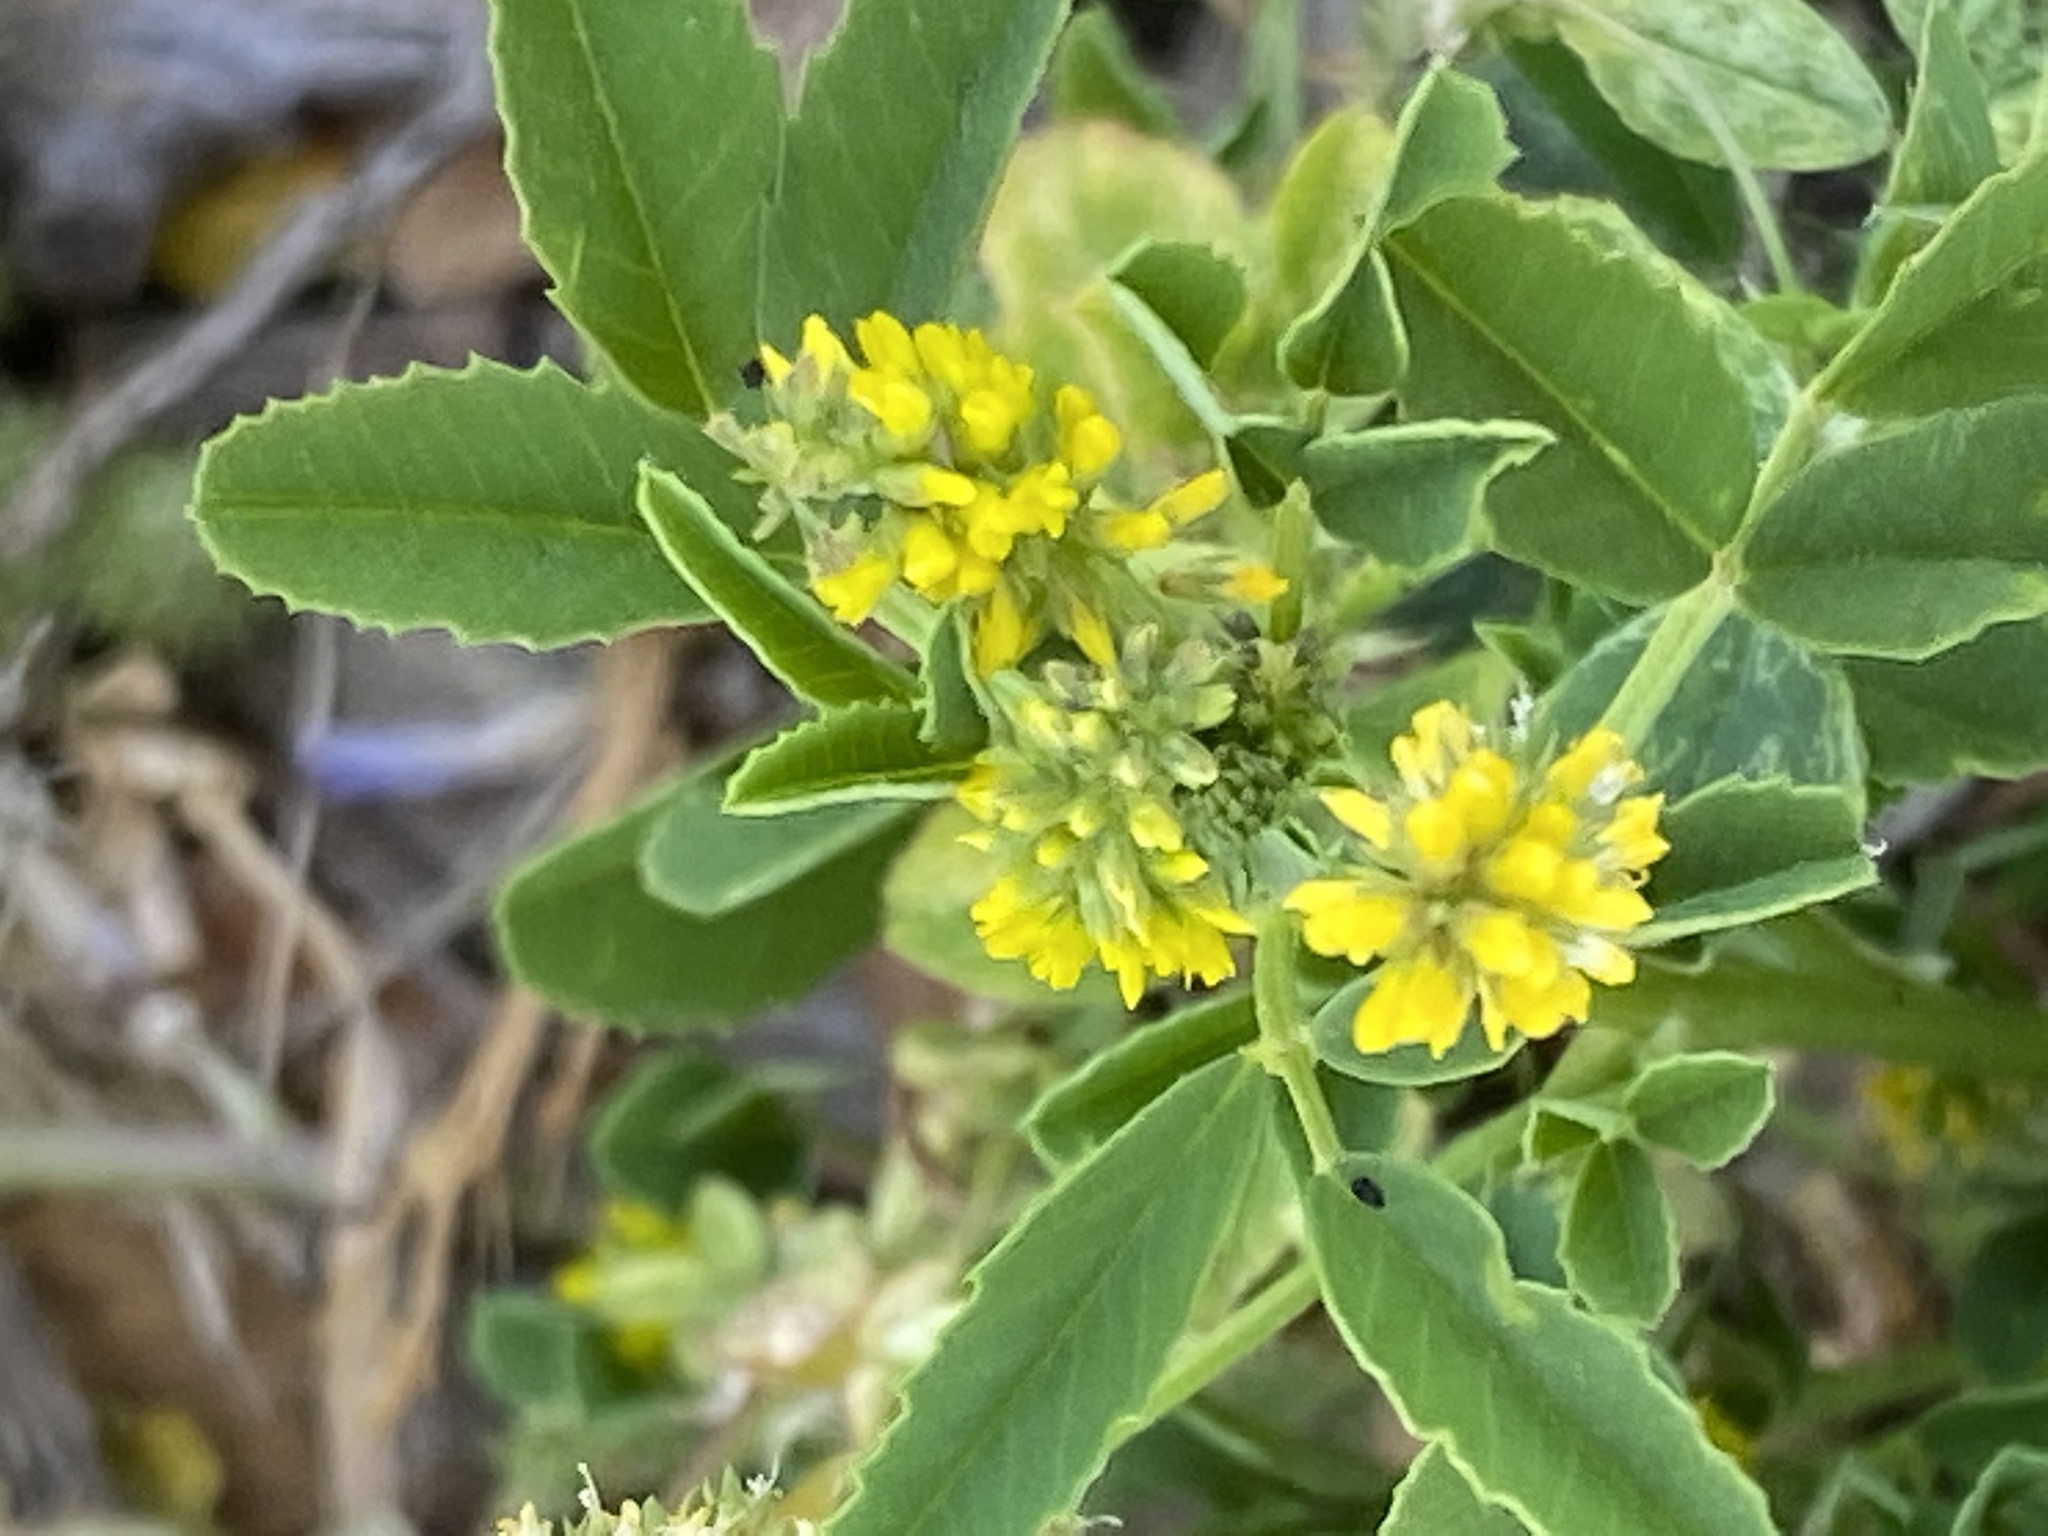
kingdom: Plantae
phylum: Tracheophyta
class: Magnoliopsida
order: Fabales
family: Fabaceae
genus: Melilotus
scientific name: Melilotus indicus
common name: Small melilot
